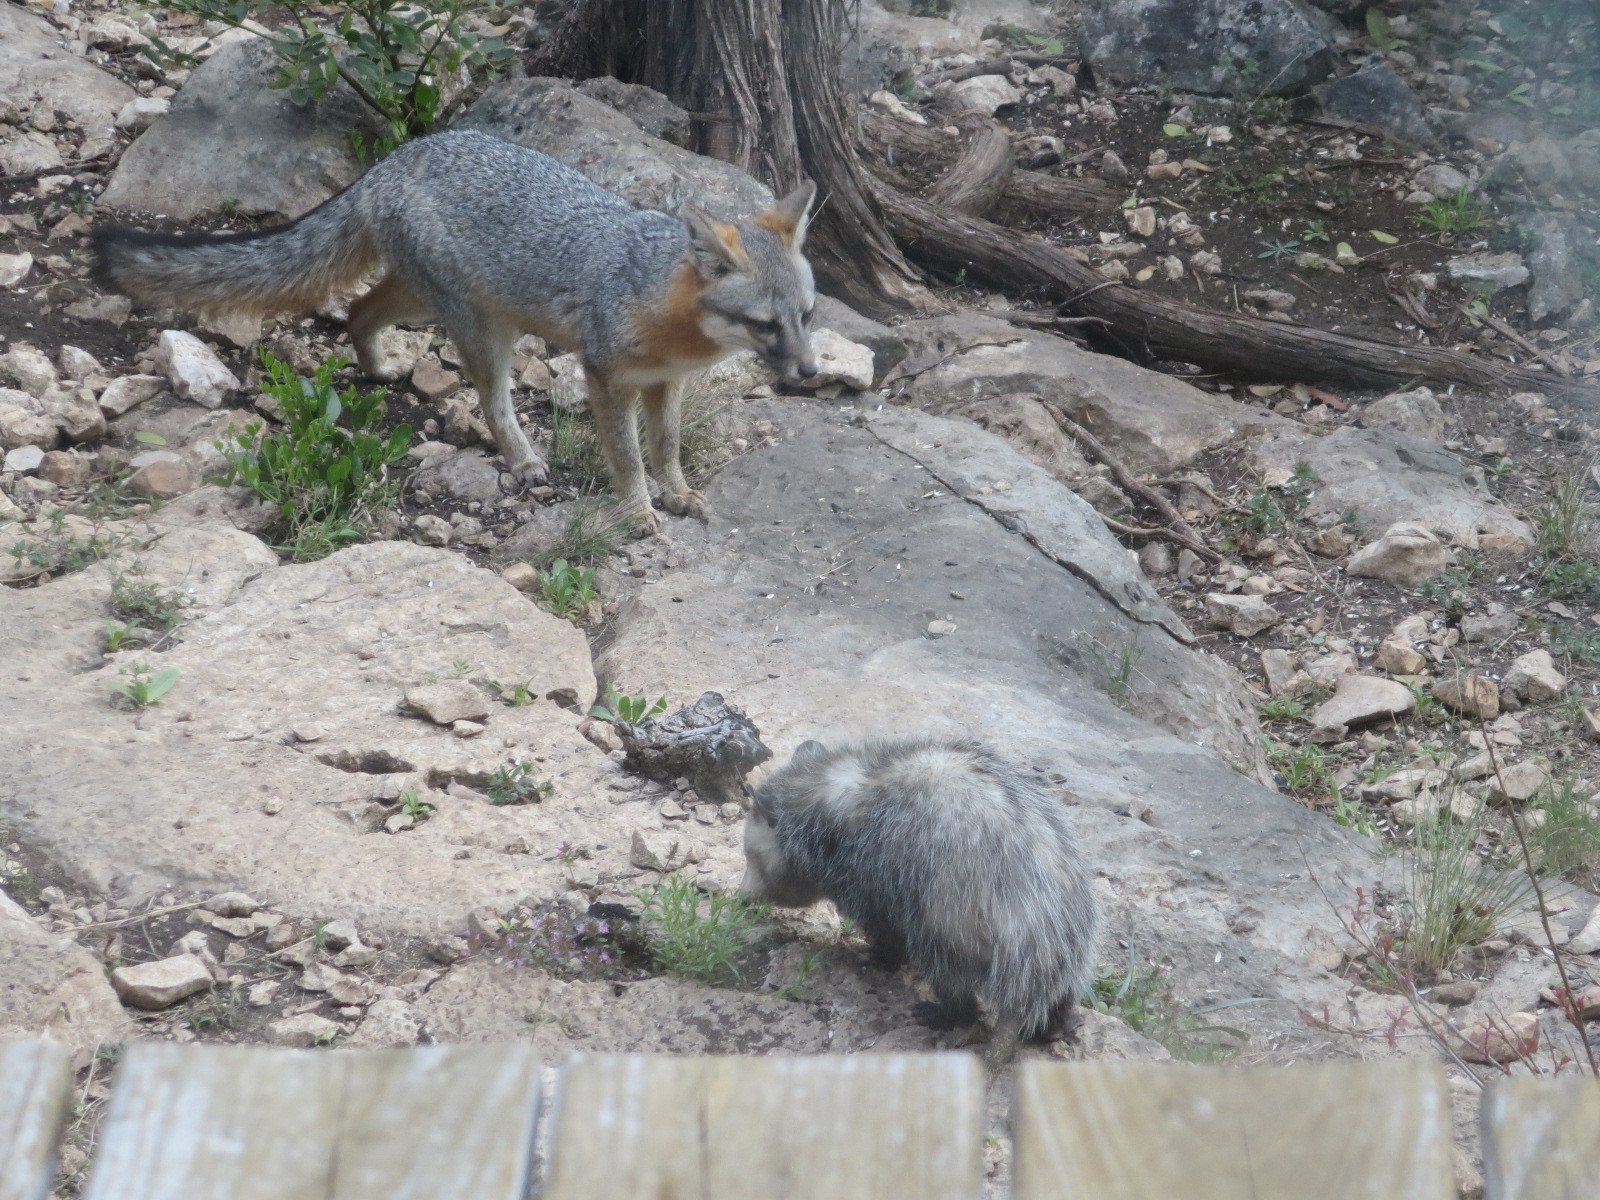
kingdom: Animalia
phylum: Chordata
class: Mammalia
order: Carnivora
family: Canidae
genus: Urocyon
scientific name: Urocyon cinereoargenteus
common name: Gray fox
